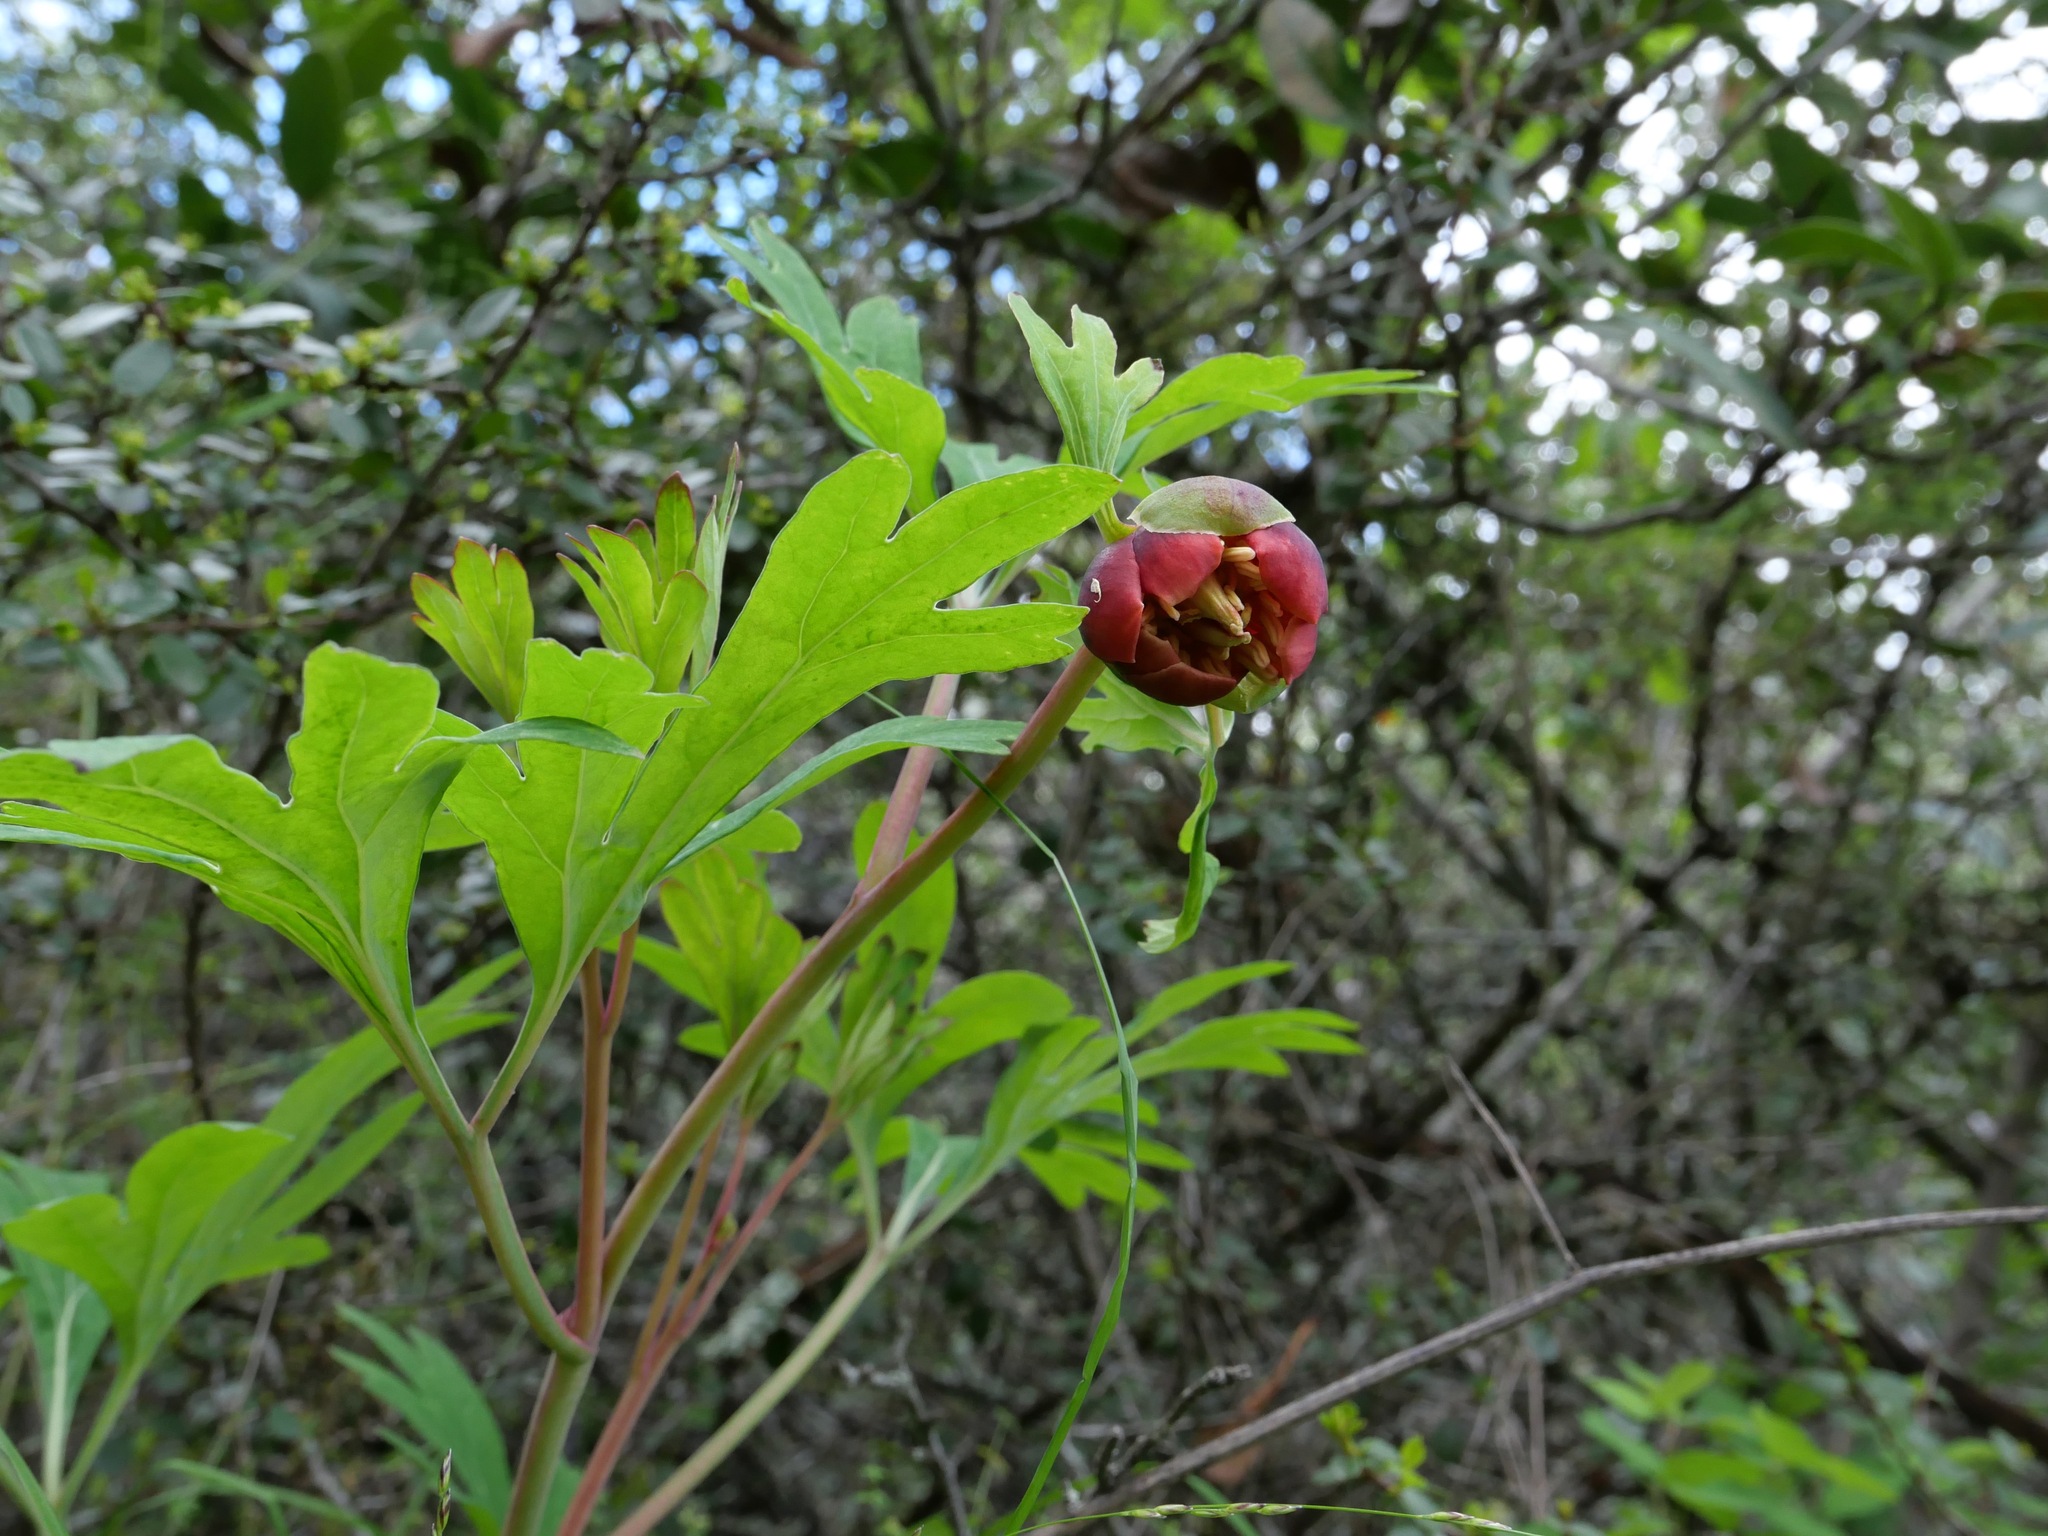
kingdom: Plantae
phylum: Tracheophyta
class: Magnoliopsida
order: Saxifragales
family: Paeoniaceae
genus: Paeonia
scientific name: Paeonia californica
